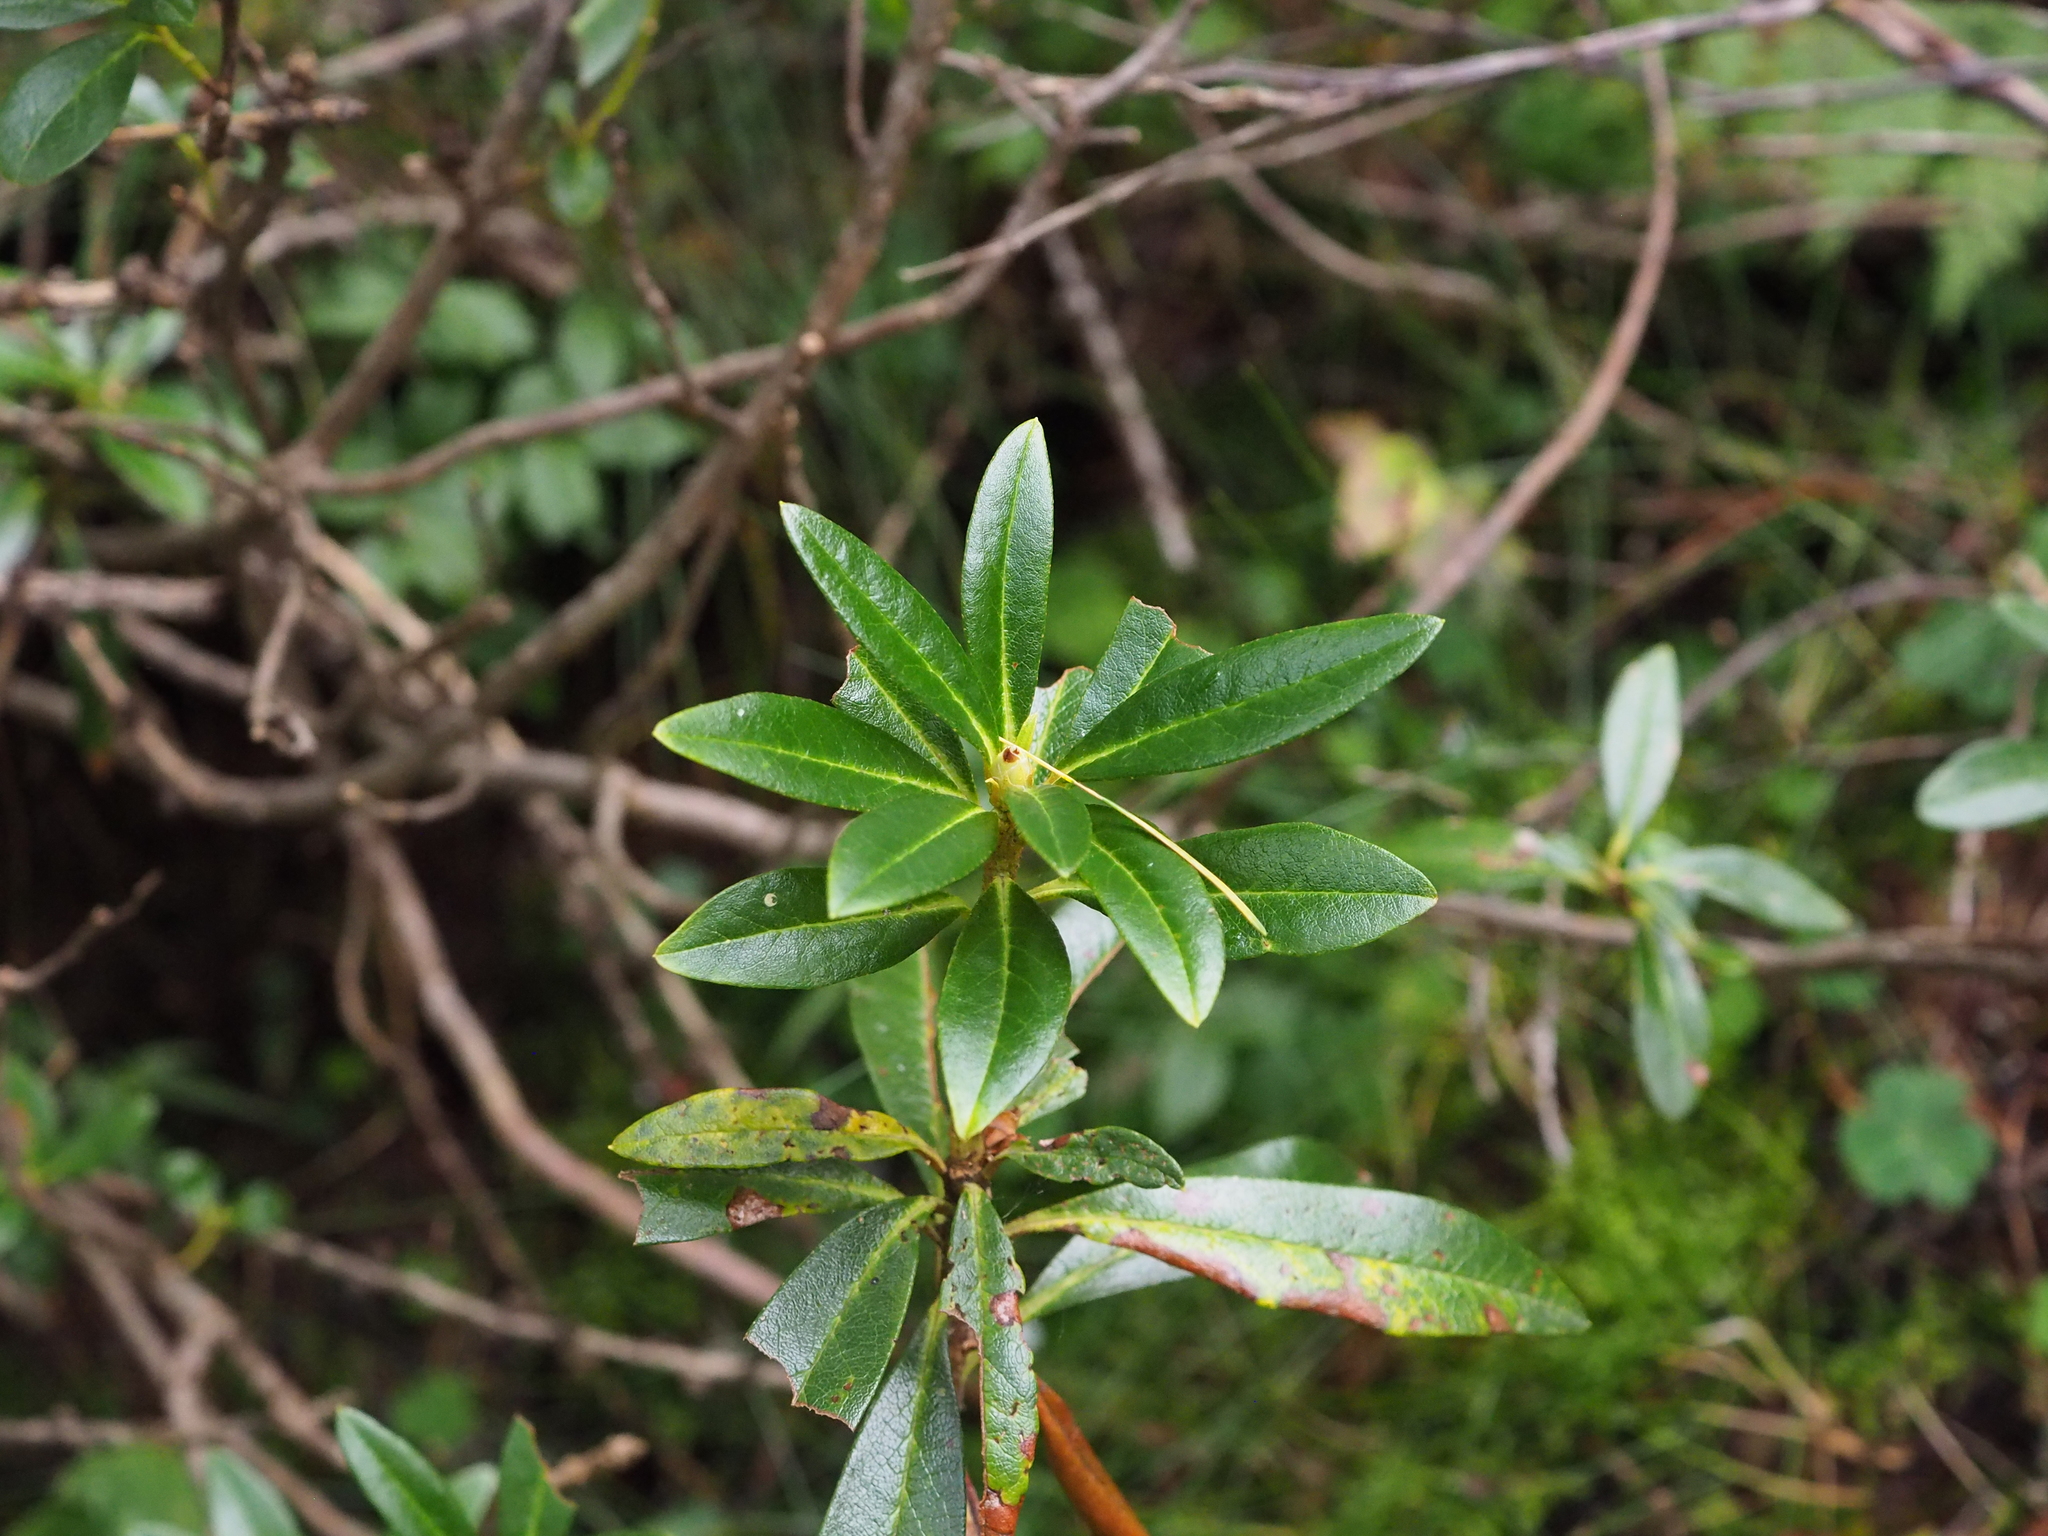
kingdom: Plantae
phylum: Tracheophyta
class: Magnoliopsida
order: Ericales
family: Ericaceae
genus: Rhododendron
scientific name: Rhododendron ferrugineum
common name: Alpenrose
